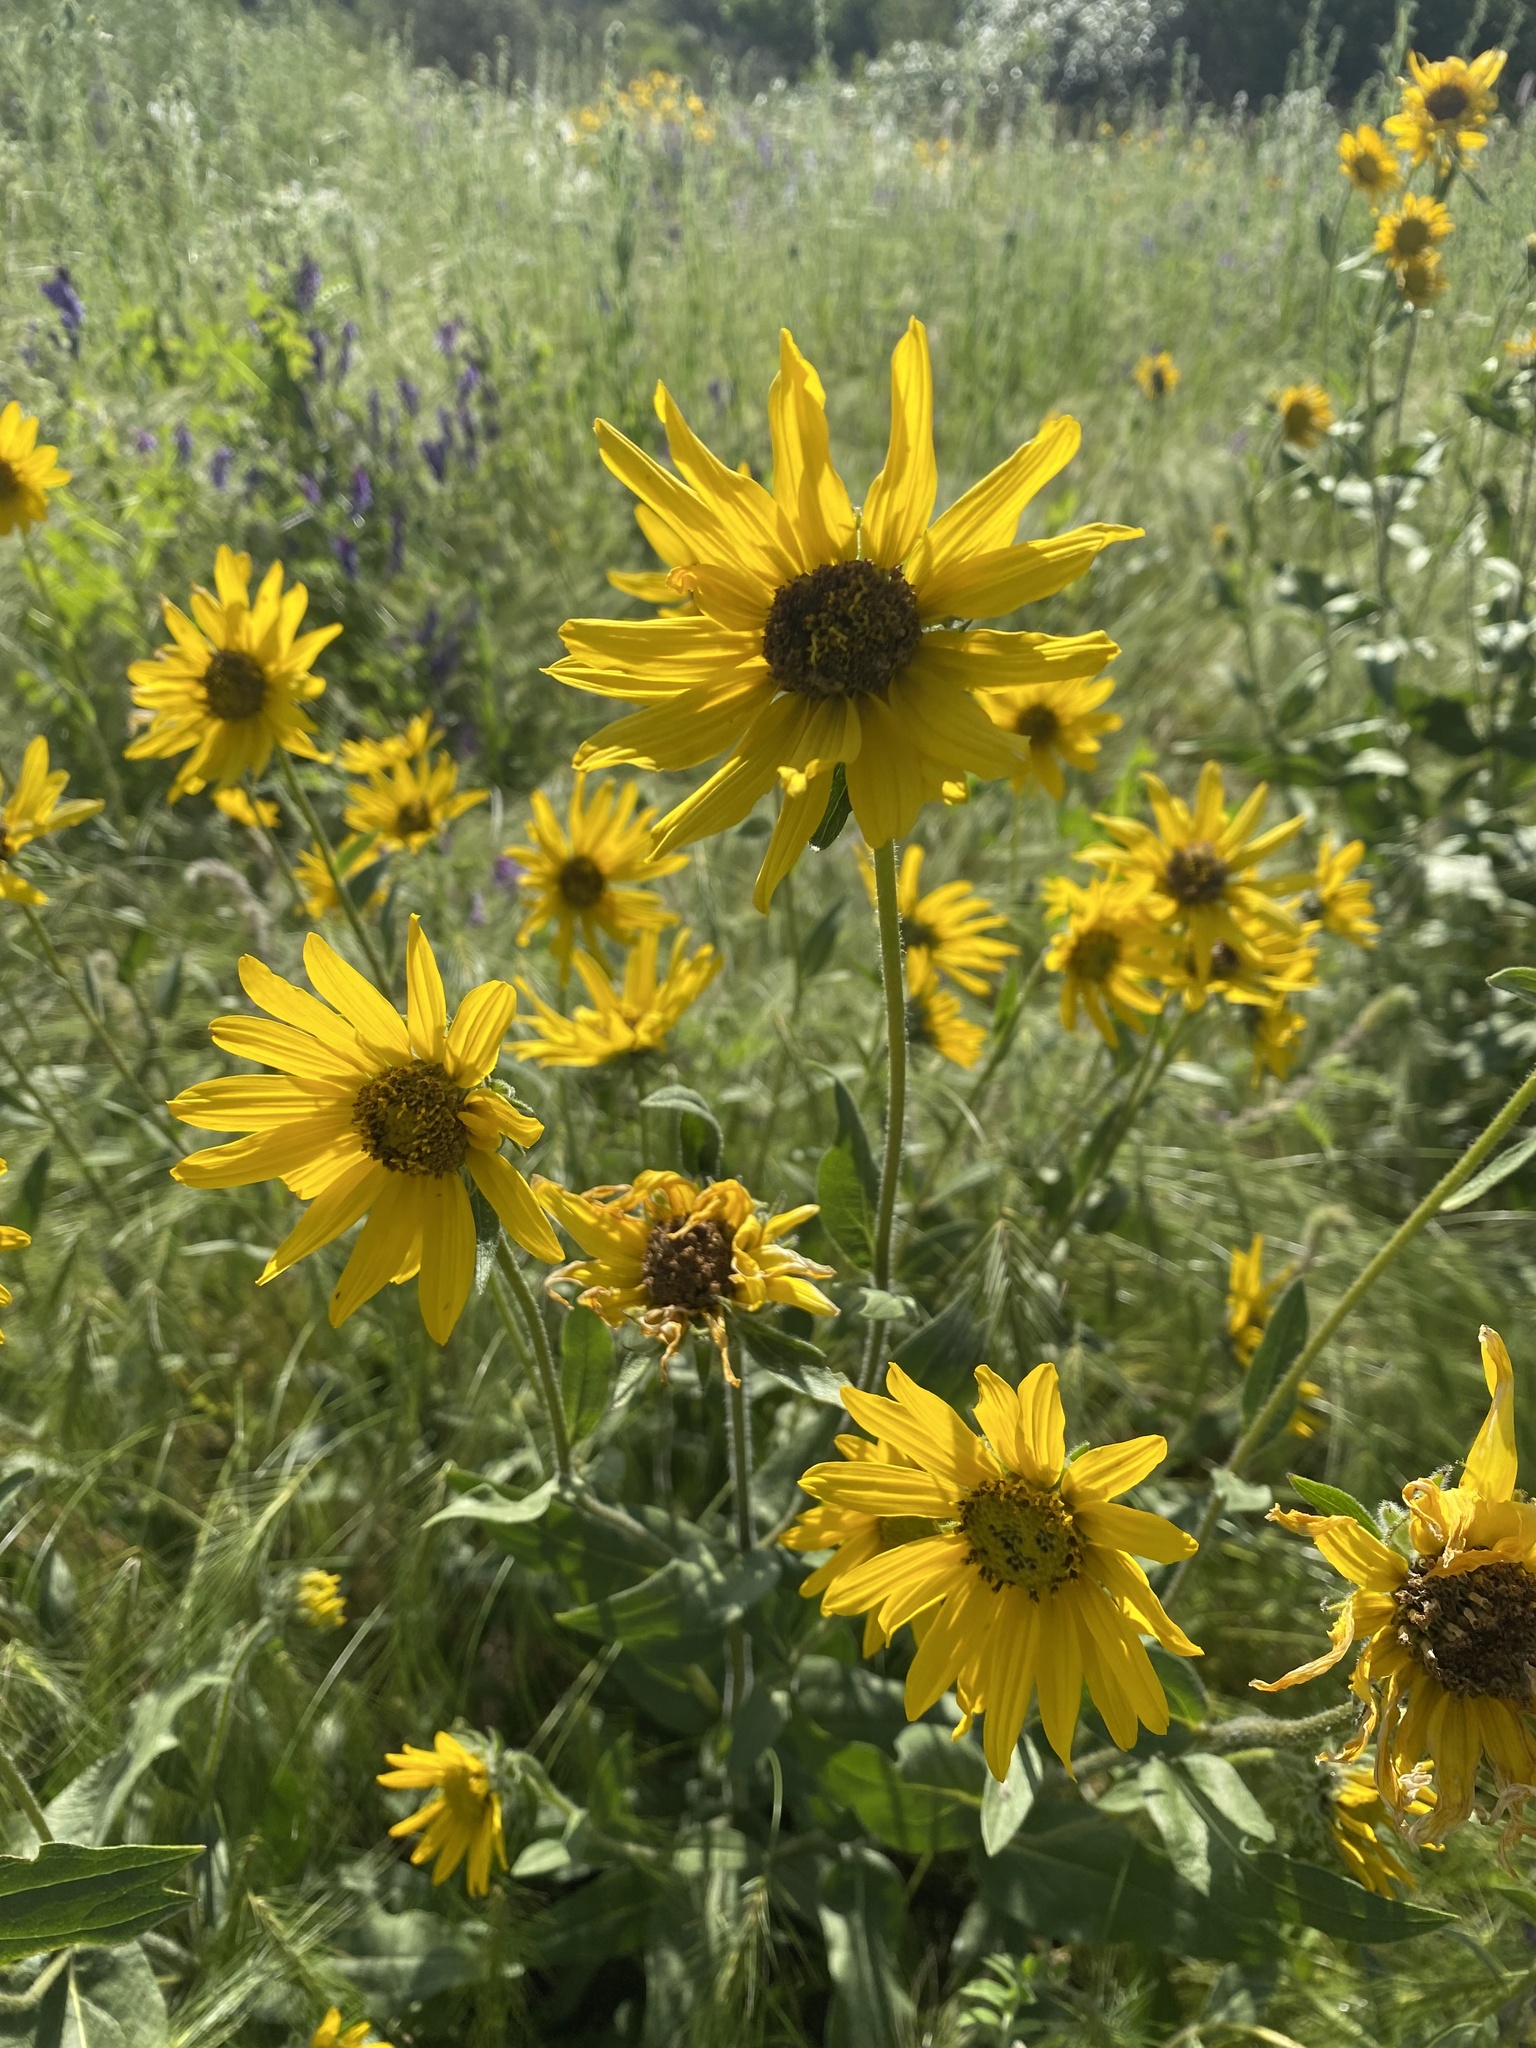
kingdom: Plantae
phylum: Tracheophyta
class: Magnoliopsida
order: Asterales
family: Asteraceae
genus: Helianthella
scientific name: Helianthella uniflora
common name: Rocky mountain dwarf sunflower
